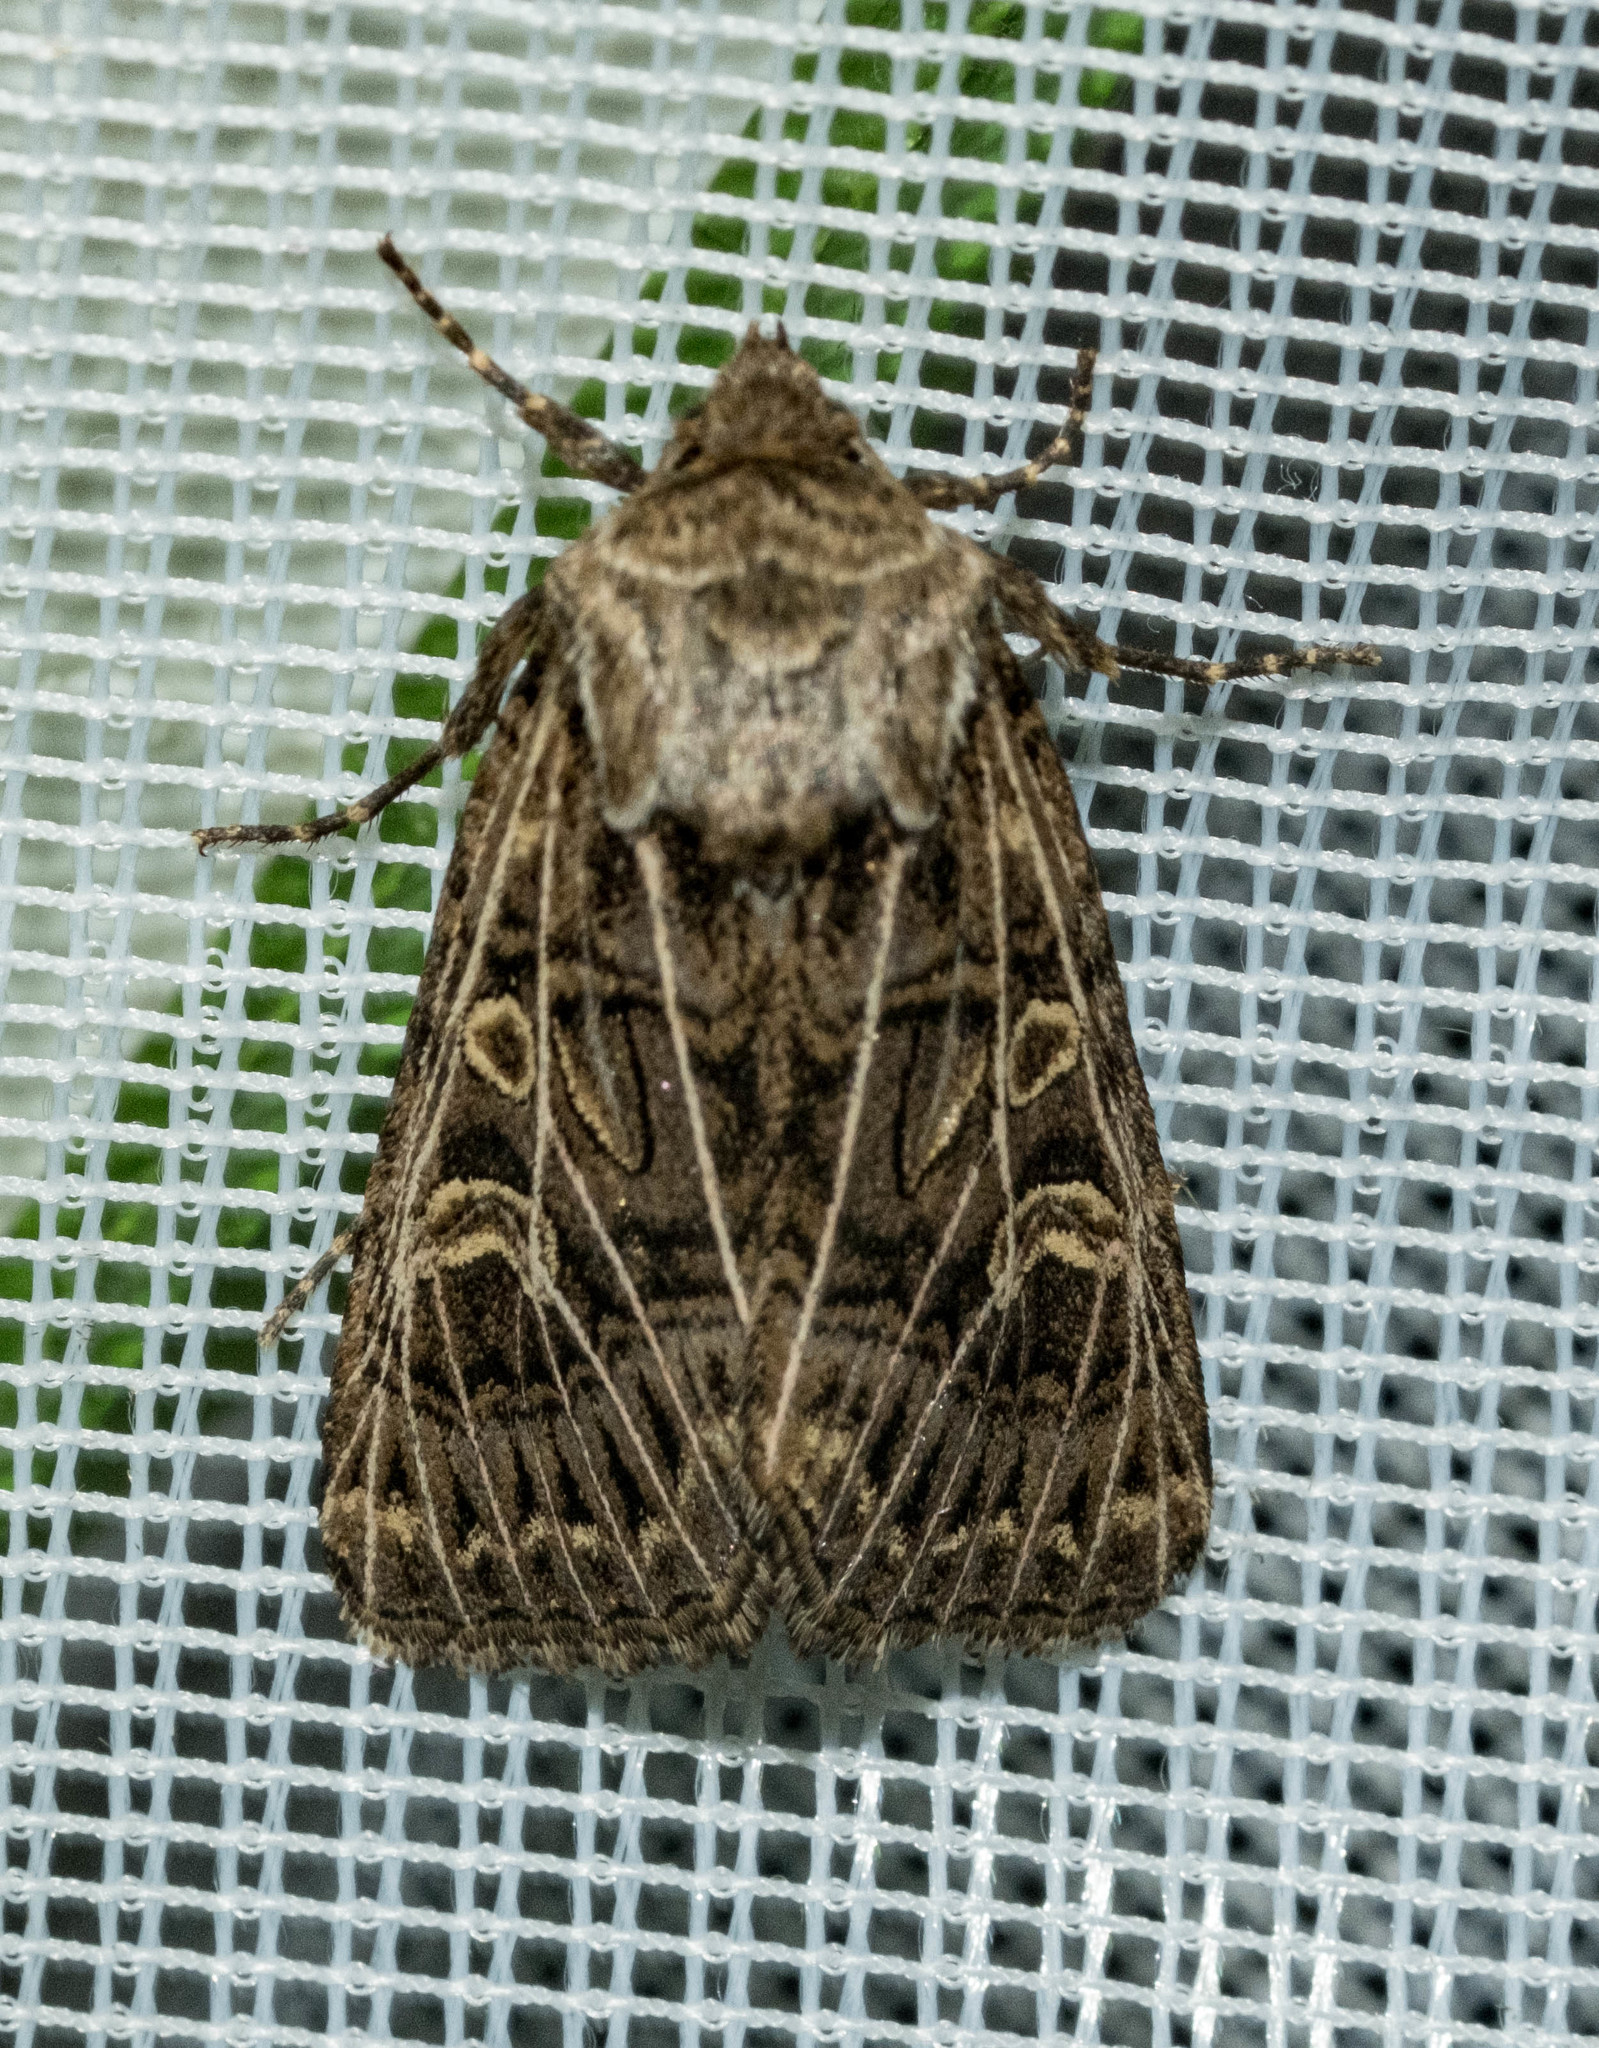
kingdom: Animalia
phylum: Arthropoda
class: Insecta
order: Lepidoptera
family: Noctuidae
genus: Tholera
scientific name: Tholera decimalis
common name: Feathered gothic
